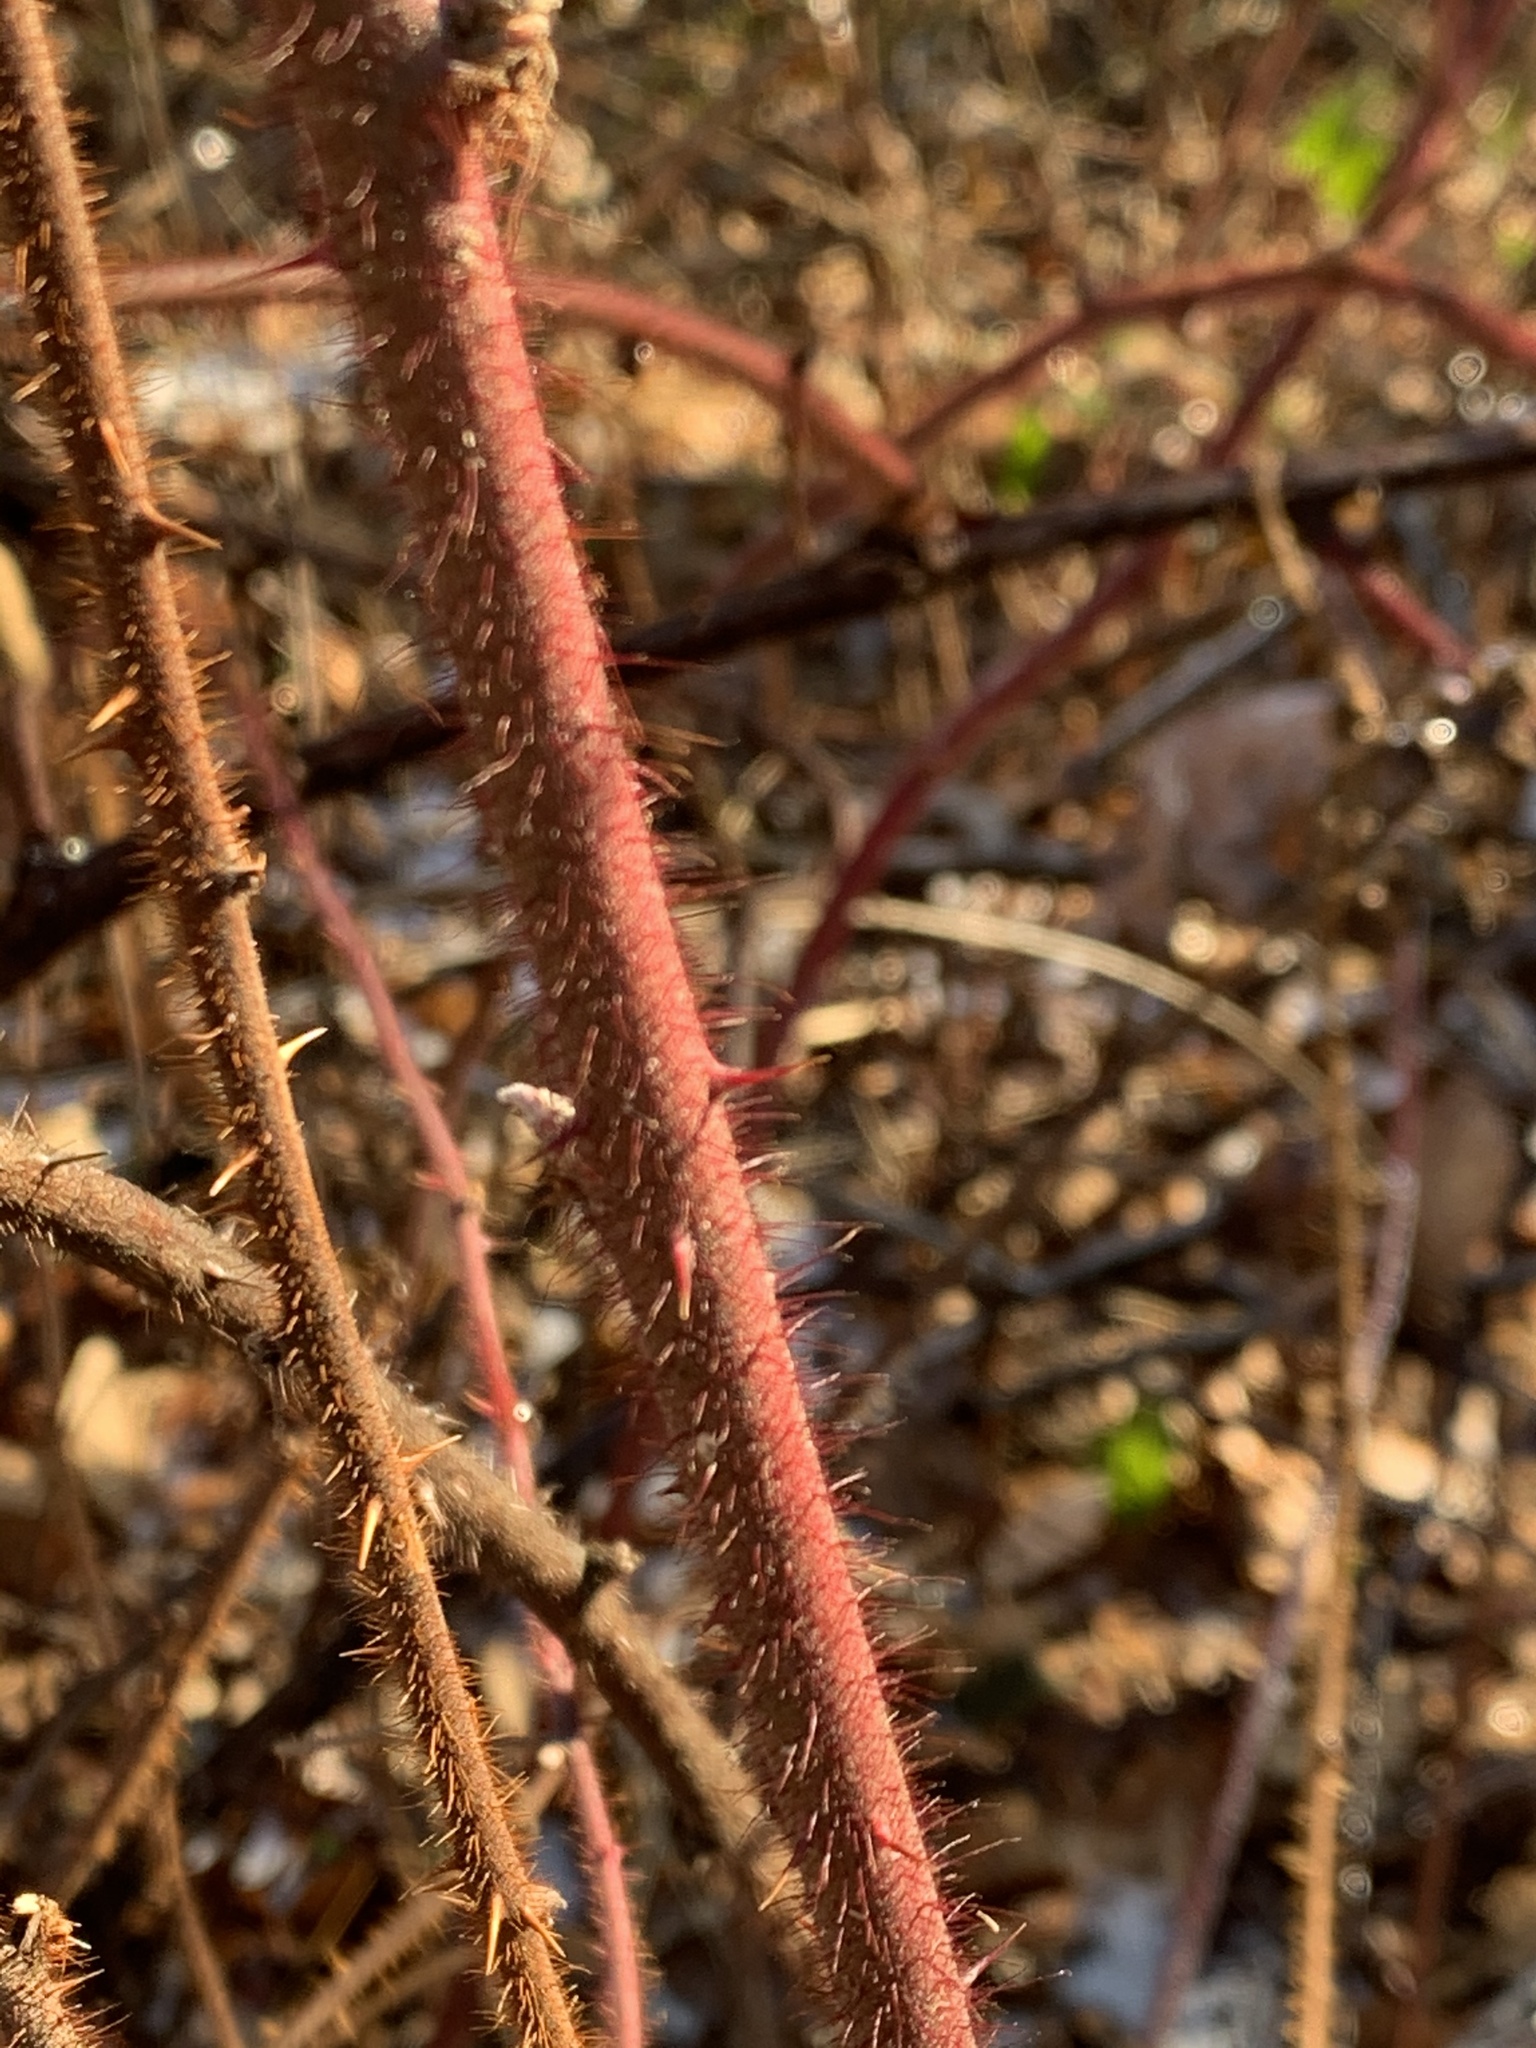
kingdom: Plantae
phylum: Tracheophyta
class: Magnoliopsida
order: Rosales
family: Rosaceae
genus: Rubus
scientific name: Rubus phoenicolasius
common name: Japanese wineberry
